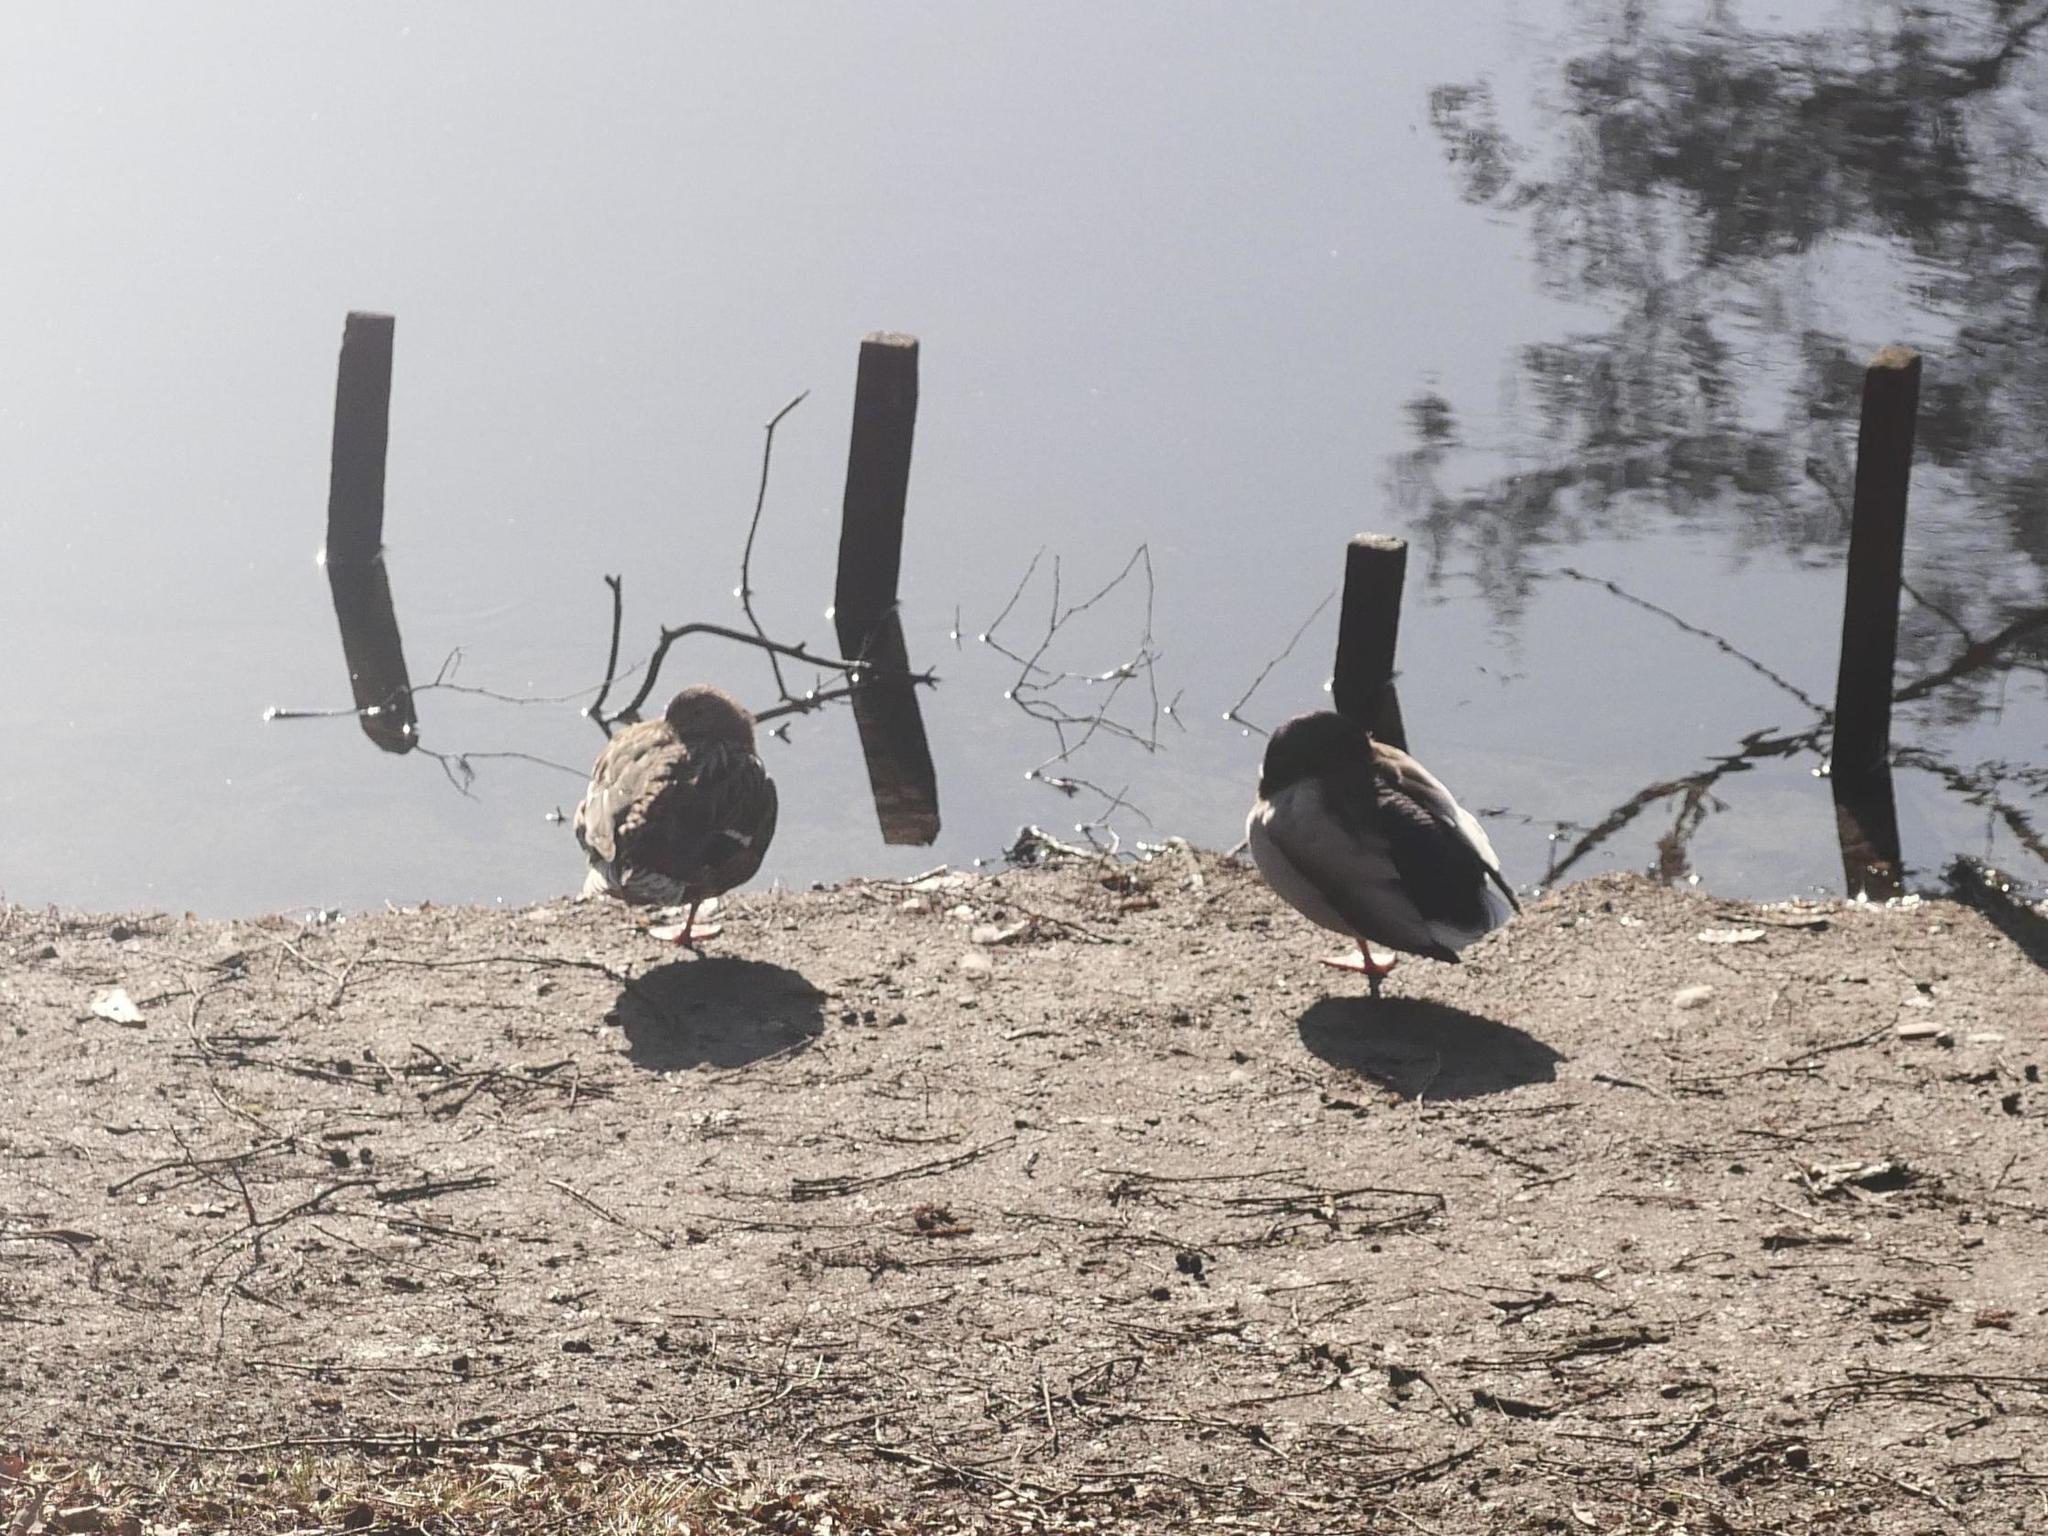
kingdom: Animalia
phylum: Chordata
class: Aves
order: Anseriformes
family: Anatidae
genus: Anas
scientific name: Anas platyrhynchos
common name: Mallard
